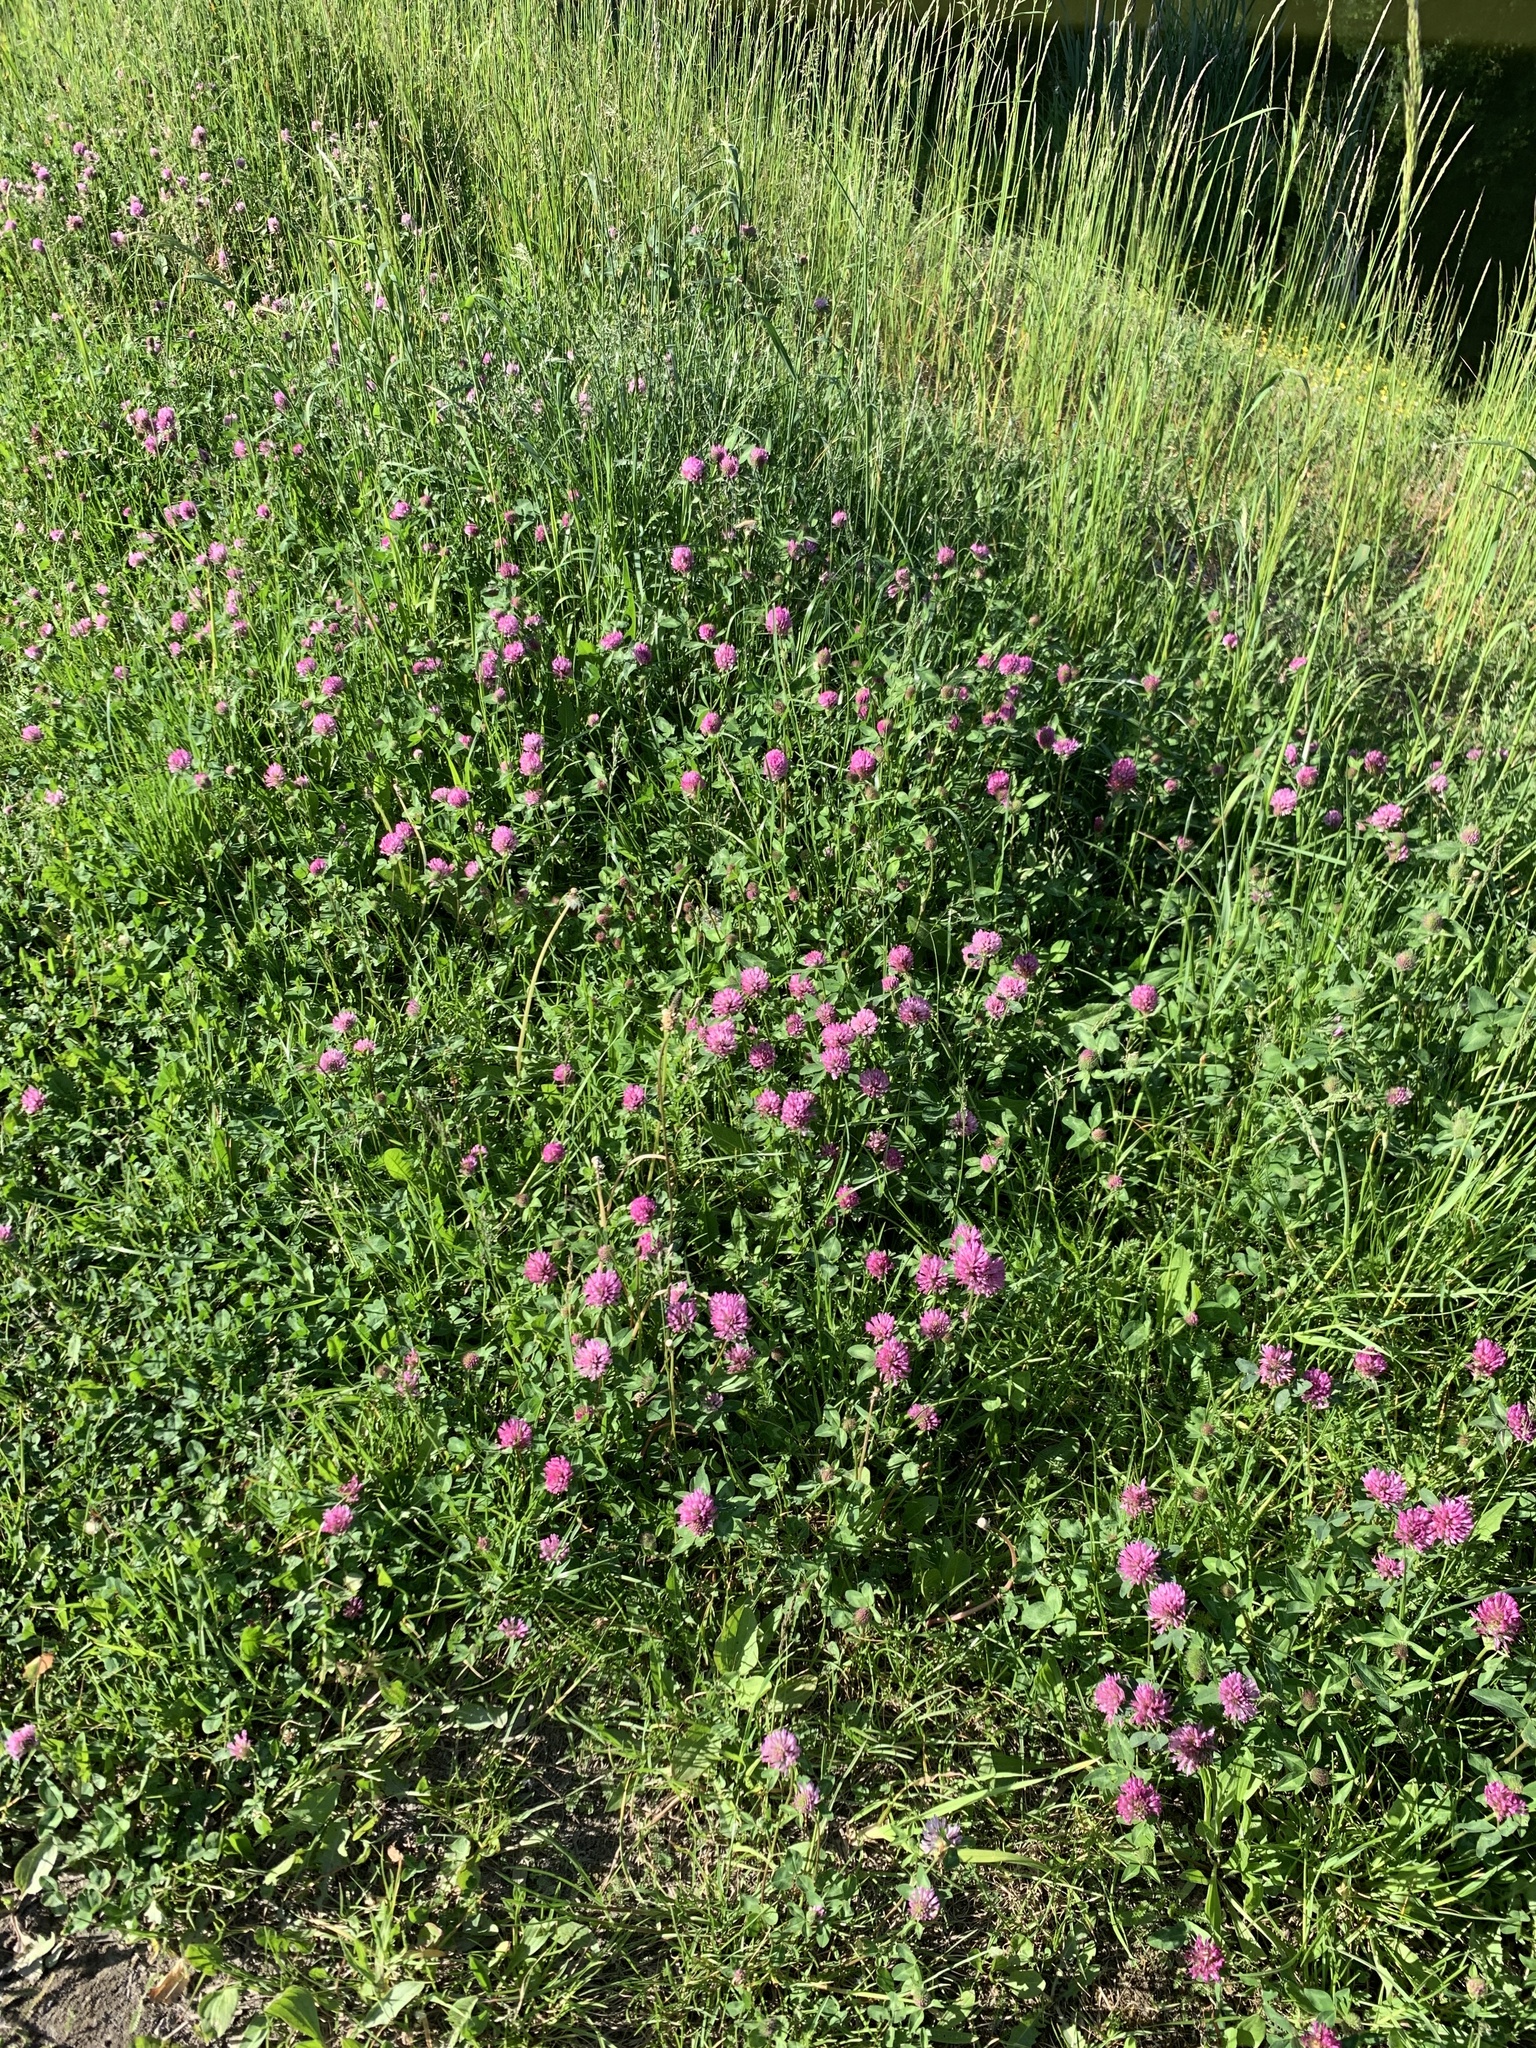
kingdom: Plantae
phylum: Tracheophyta
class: Magnoliopsida
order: Fabales
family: Fabaceae
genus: Trifolium
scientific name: Trifolium pratense
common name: Red clover
